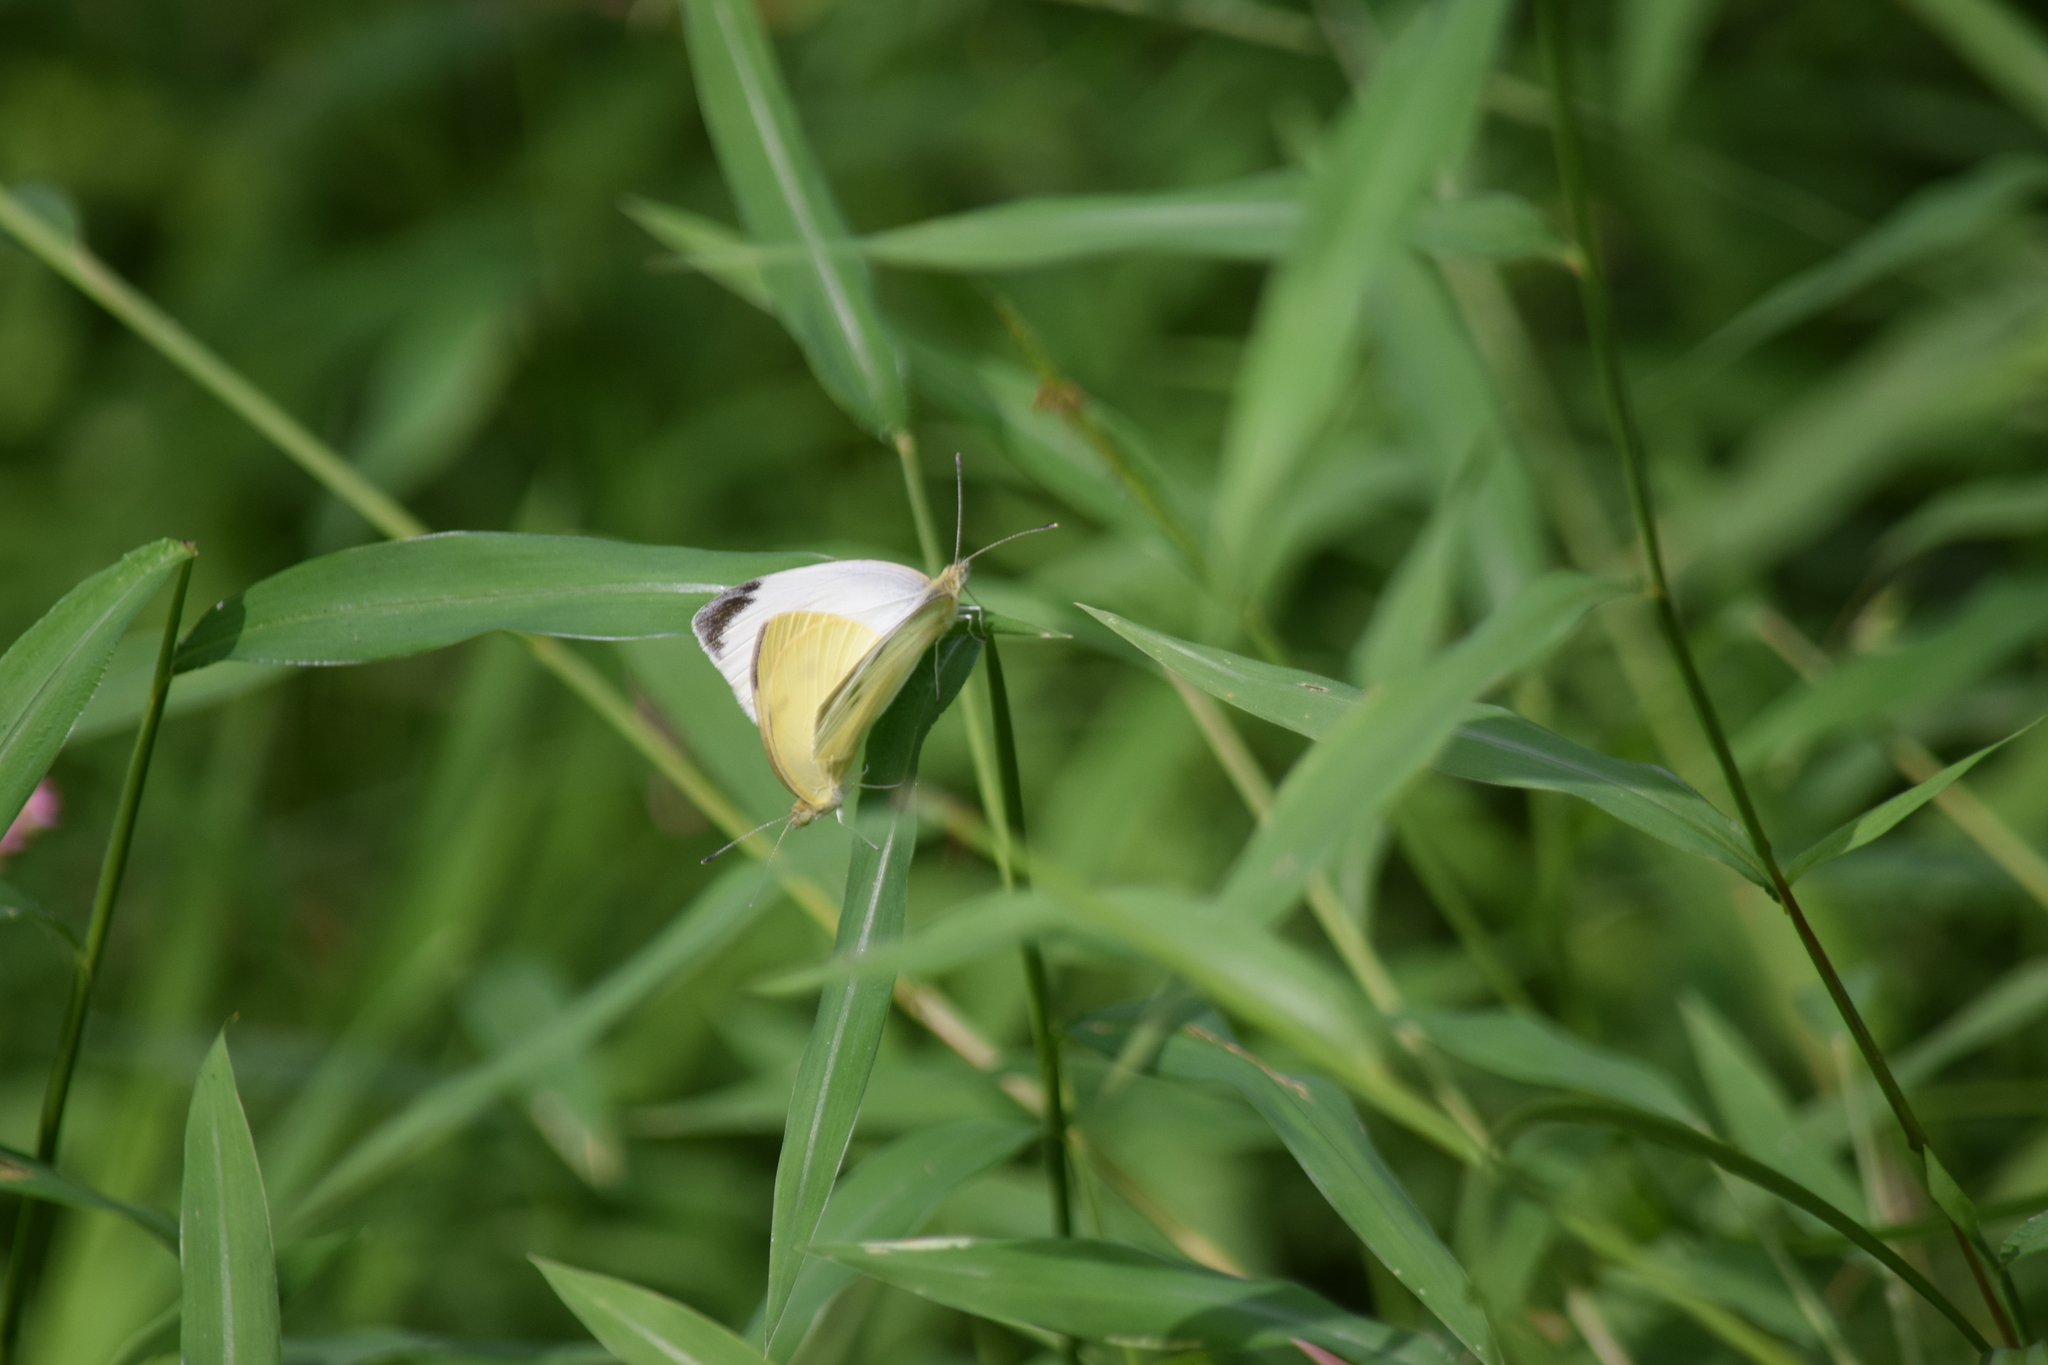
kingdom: Animalia
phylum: Arthropoda
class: Insecta
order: Lepidoptera
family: Pieridae
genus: Pieris
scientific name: Pieris rapae
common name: Small white
